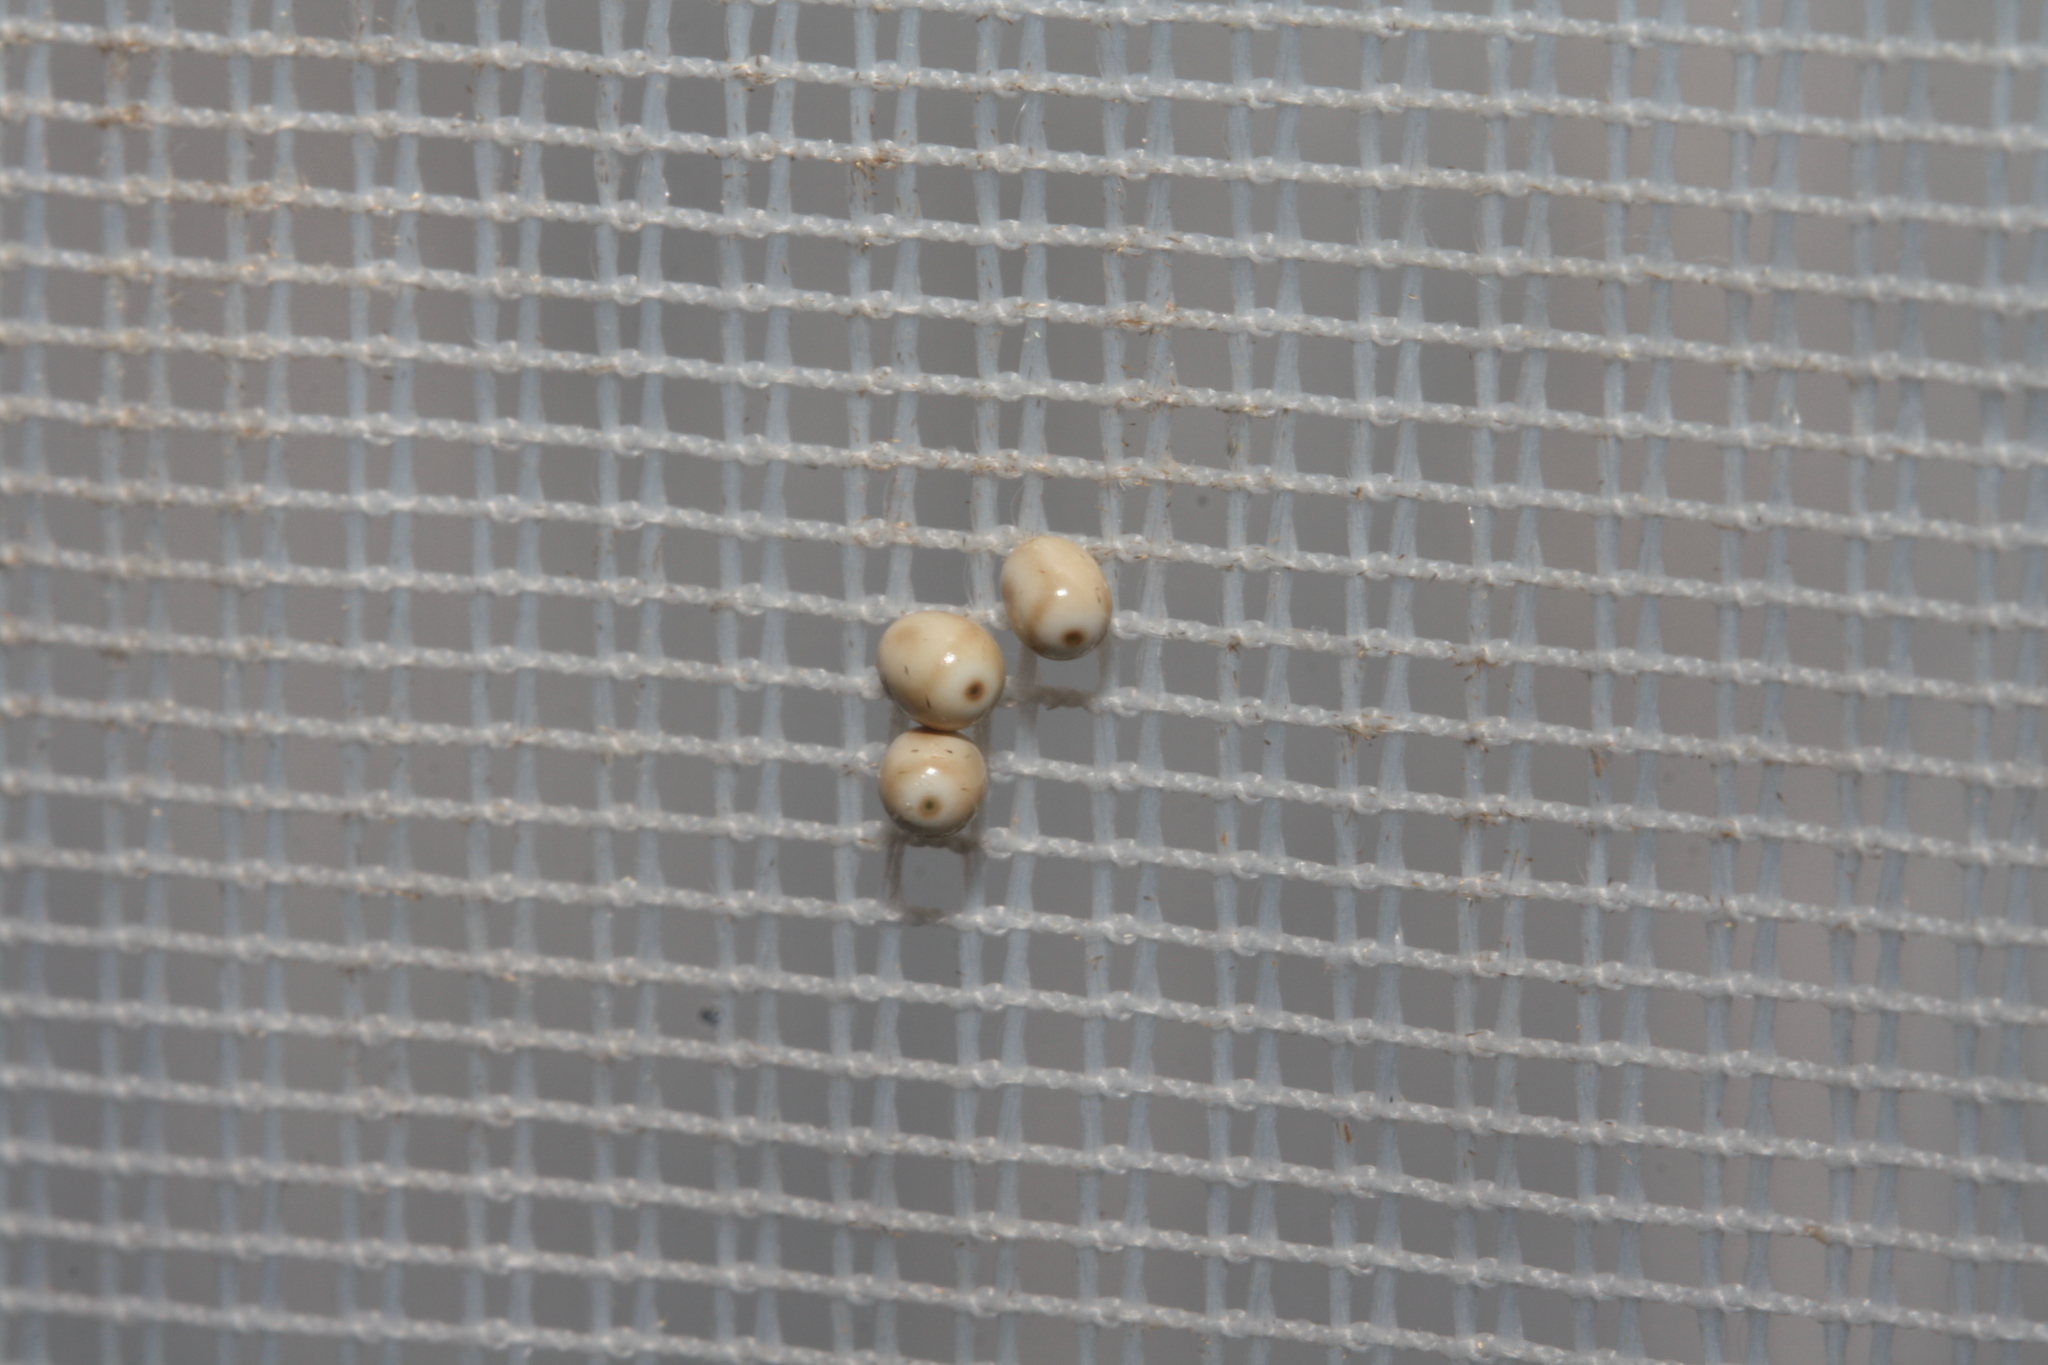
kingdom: Animalia
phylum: Arthropoda
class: Insecta
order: Lepidoptera
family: Lasiocampidae
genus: Macrothylacia
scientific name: Macrothylacia rubi
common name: Fox moth
